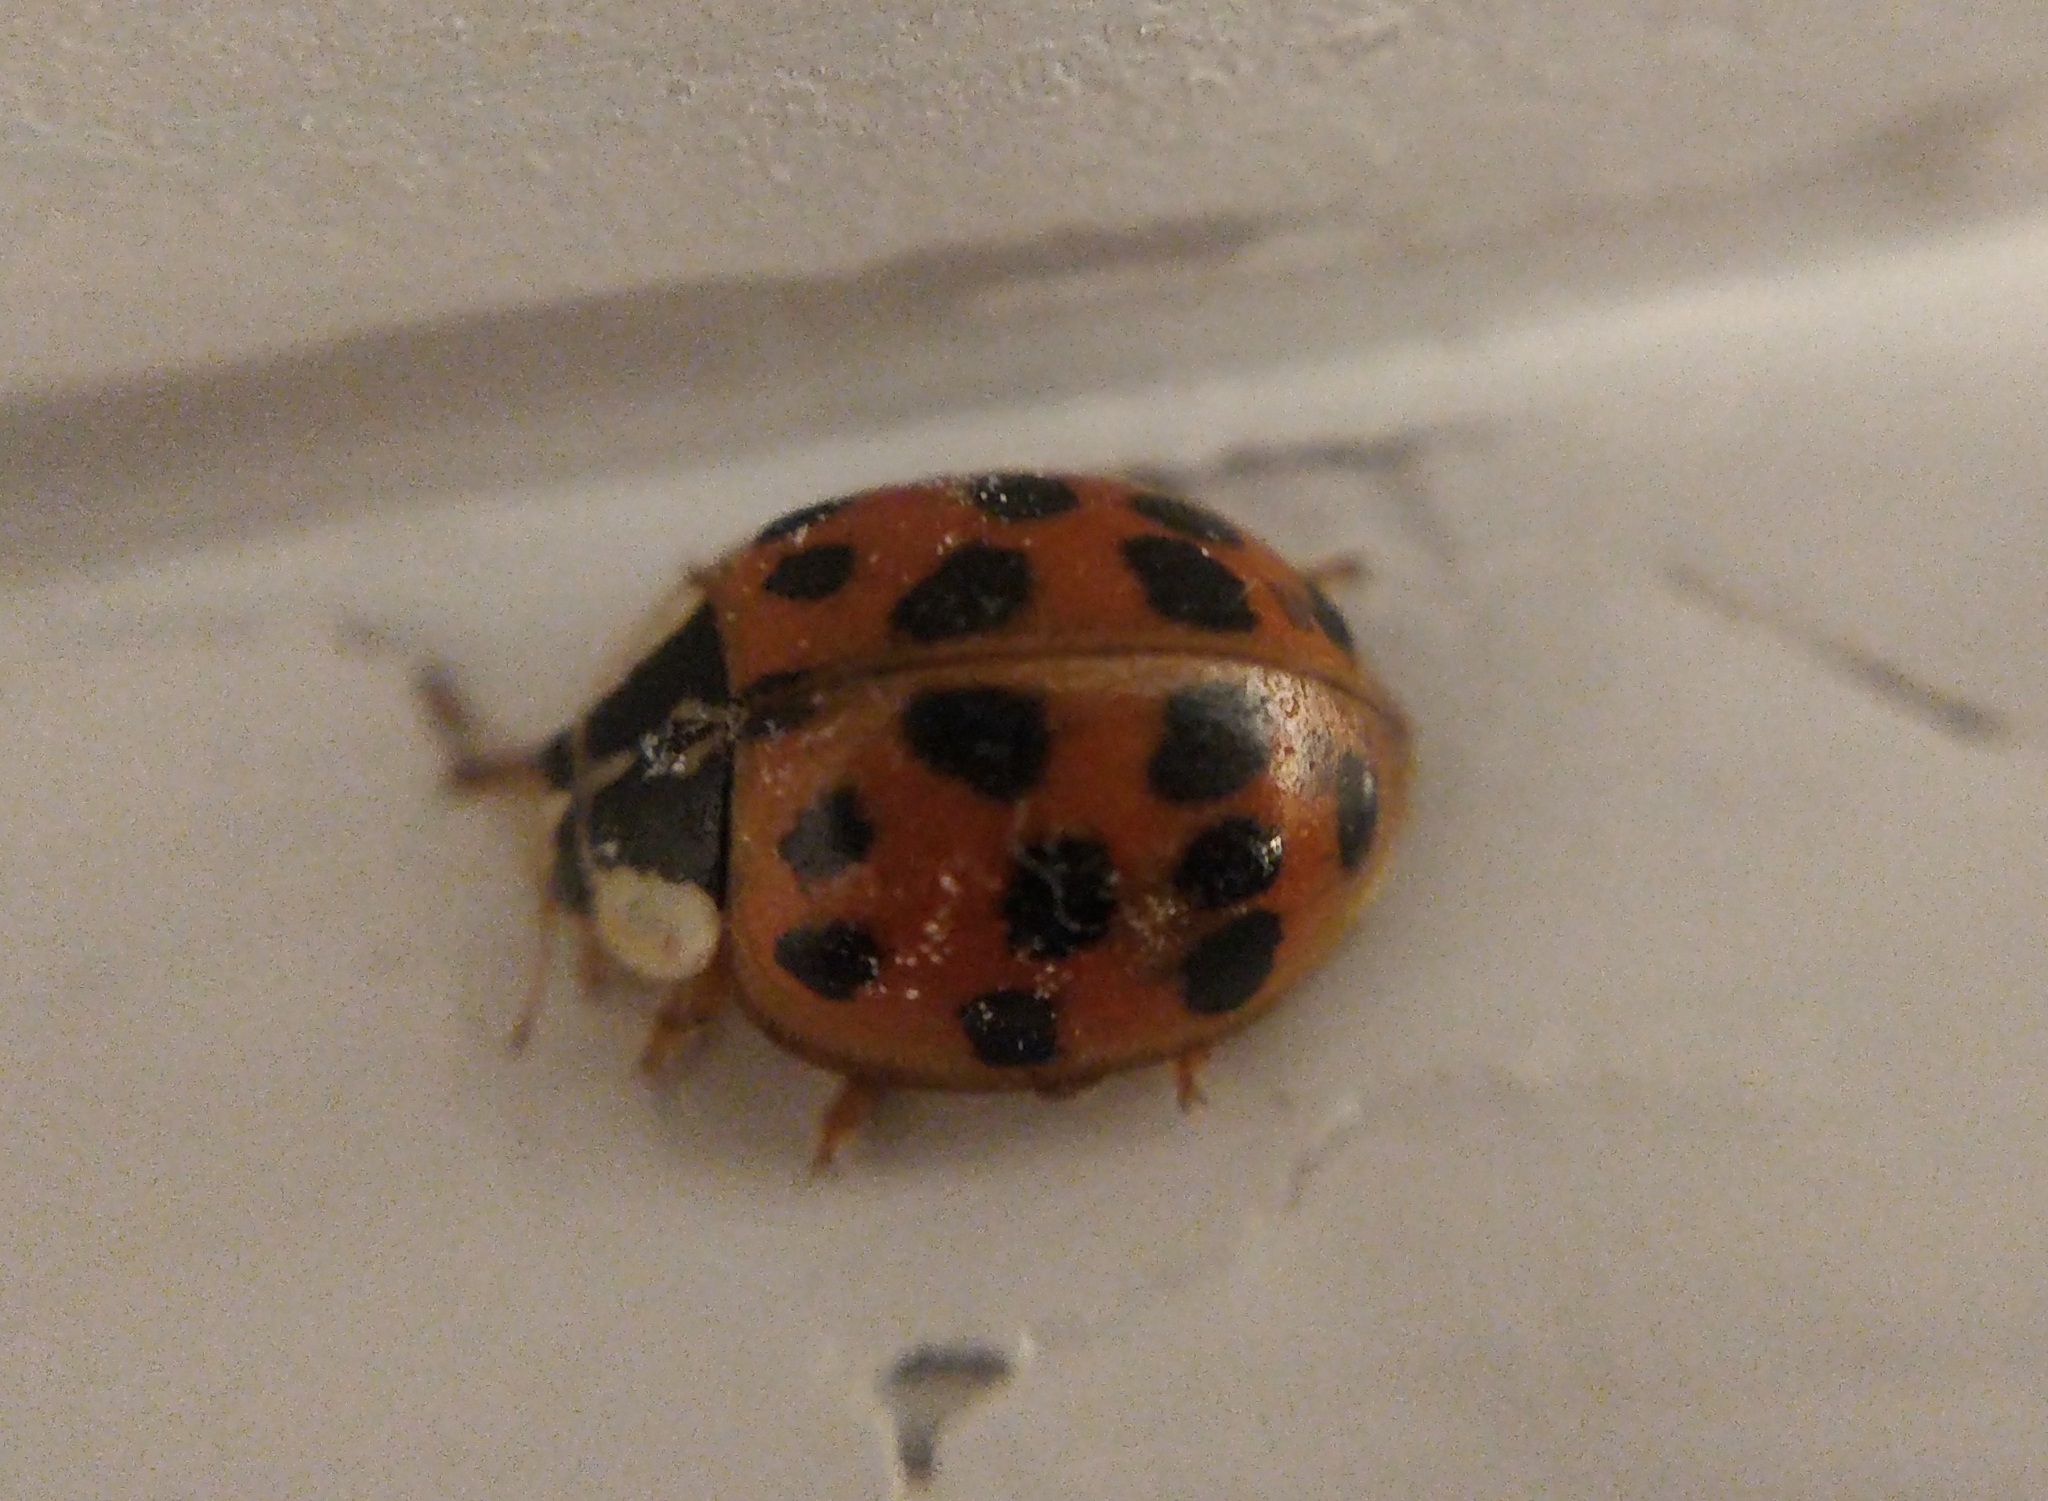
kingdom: Animalia
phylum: Arthropoda
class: Insecta
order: Coleoptera
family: Coccinellidae
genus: Harmonia
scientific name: Harmonia axyridis
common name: Harlequin ladybird
